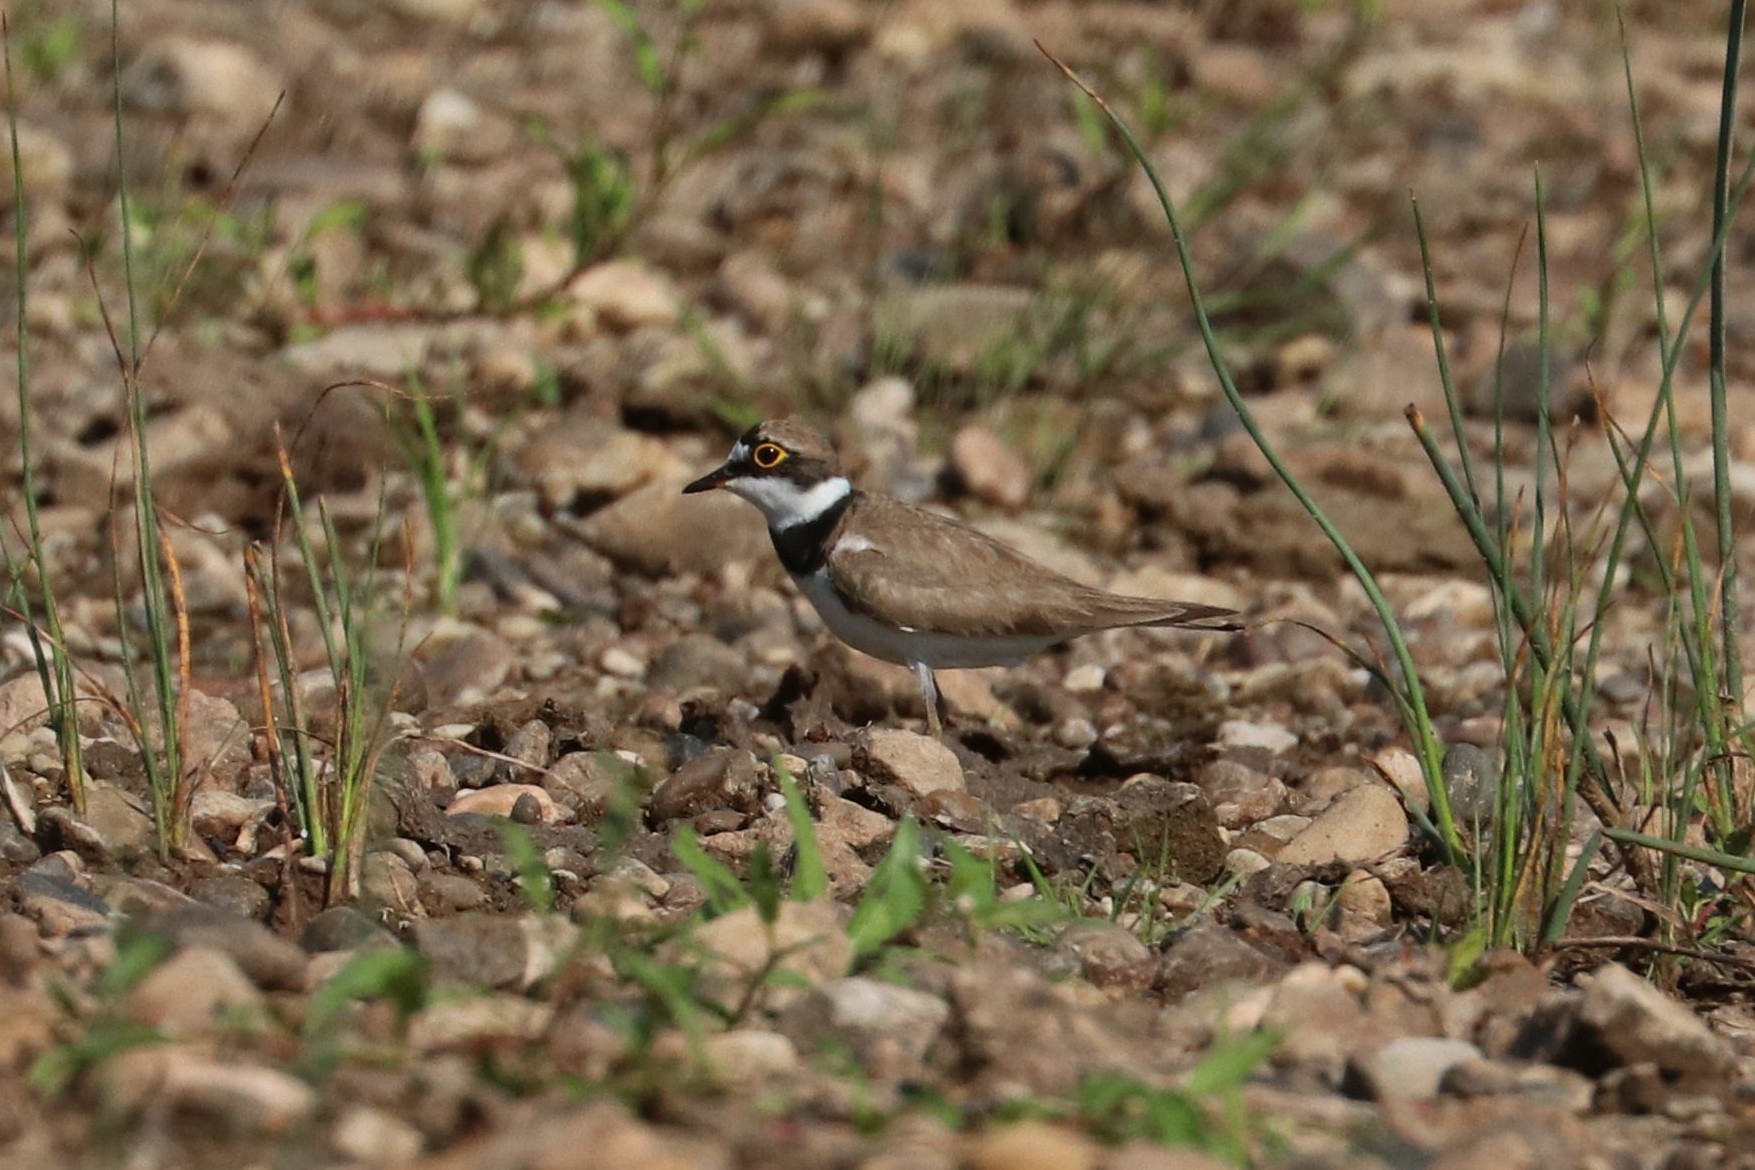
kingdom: Animalia
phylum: Chordata
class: Aves
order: Charadriiformes
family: Charadriidae
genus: Charadrius
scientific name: Charadrius dubius
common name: Little ringed plover
